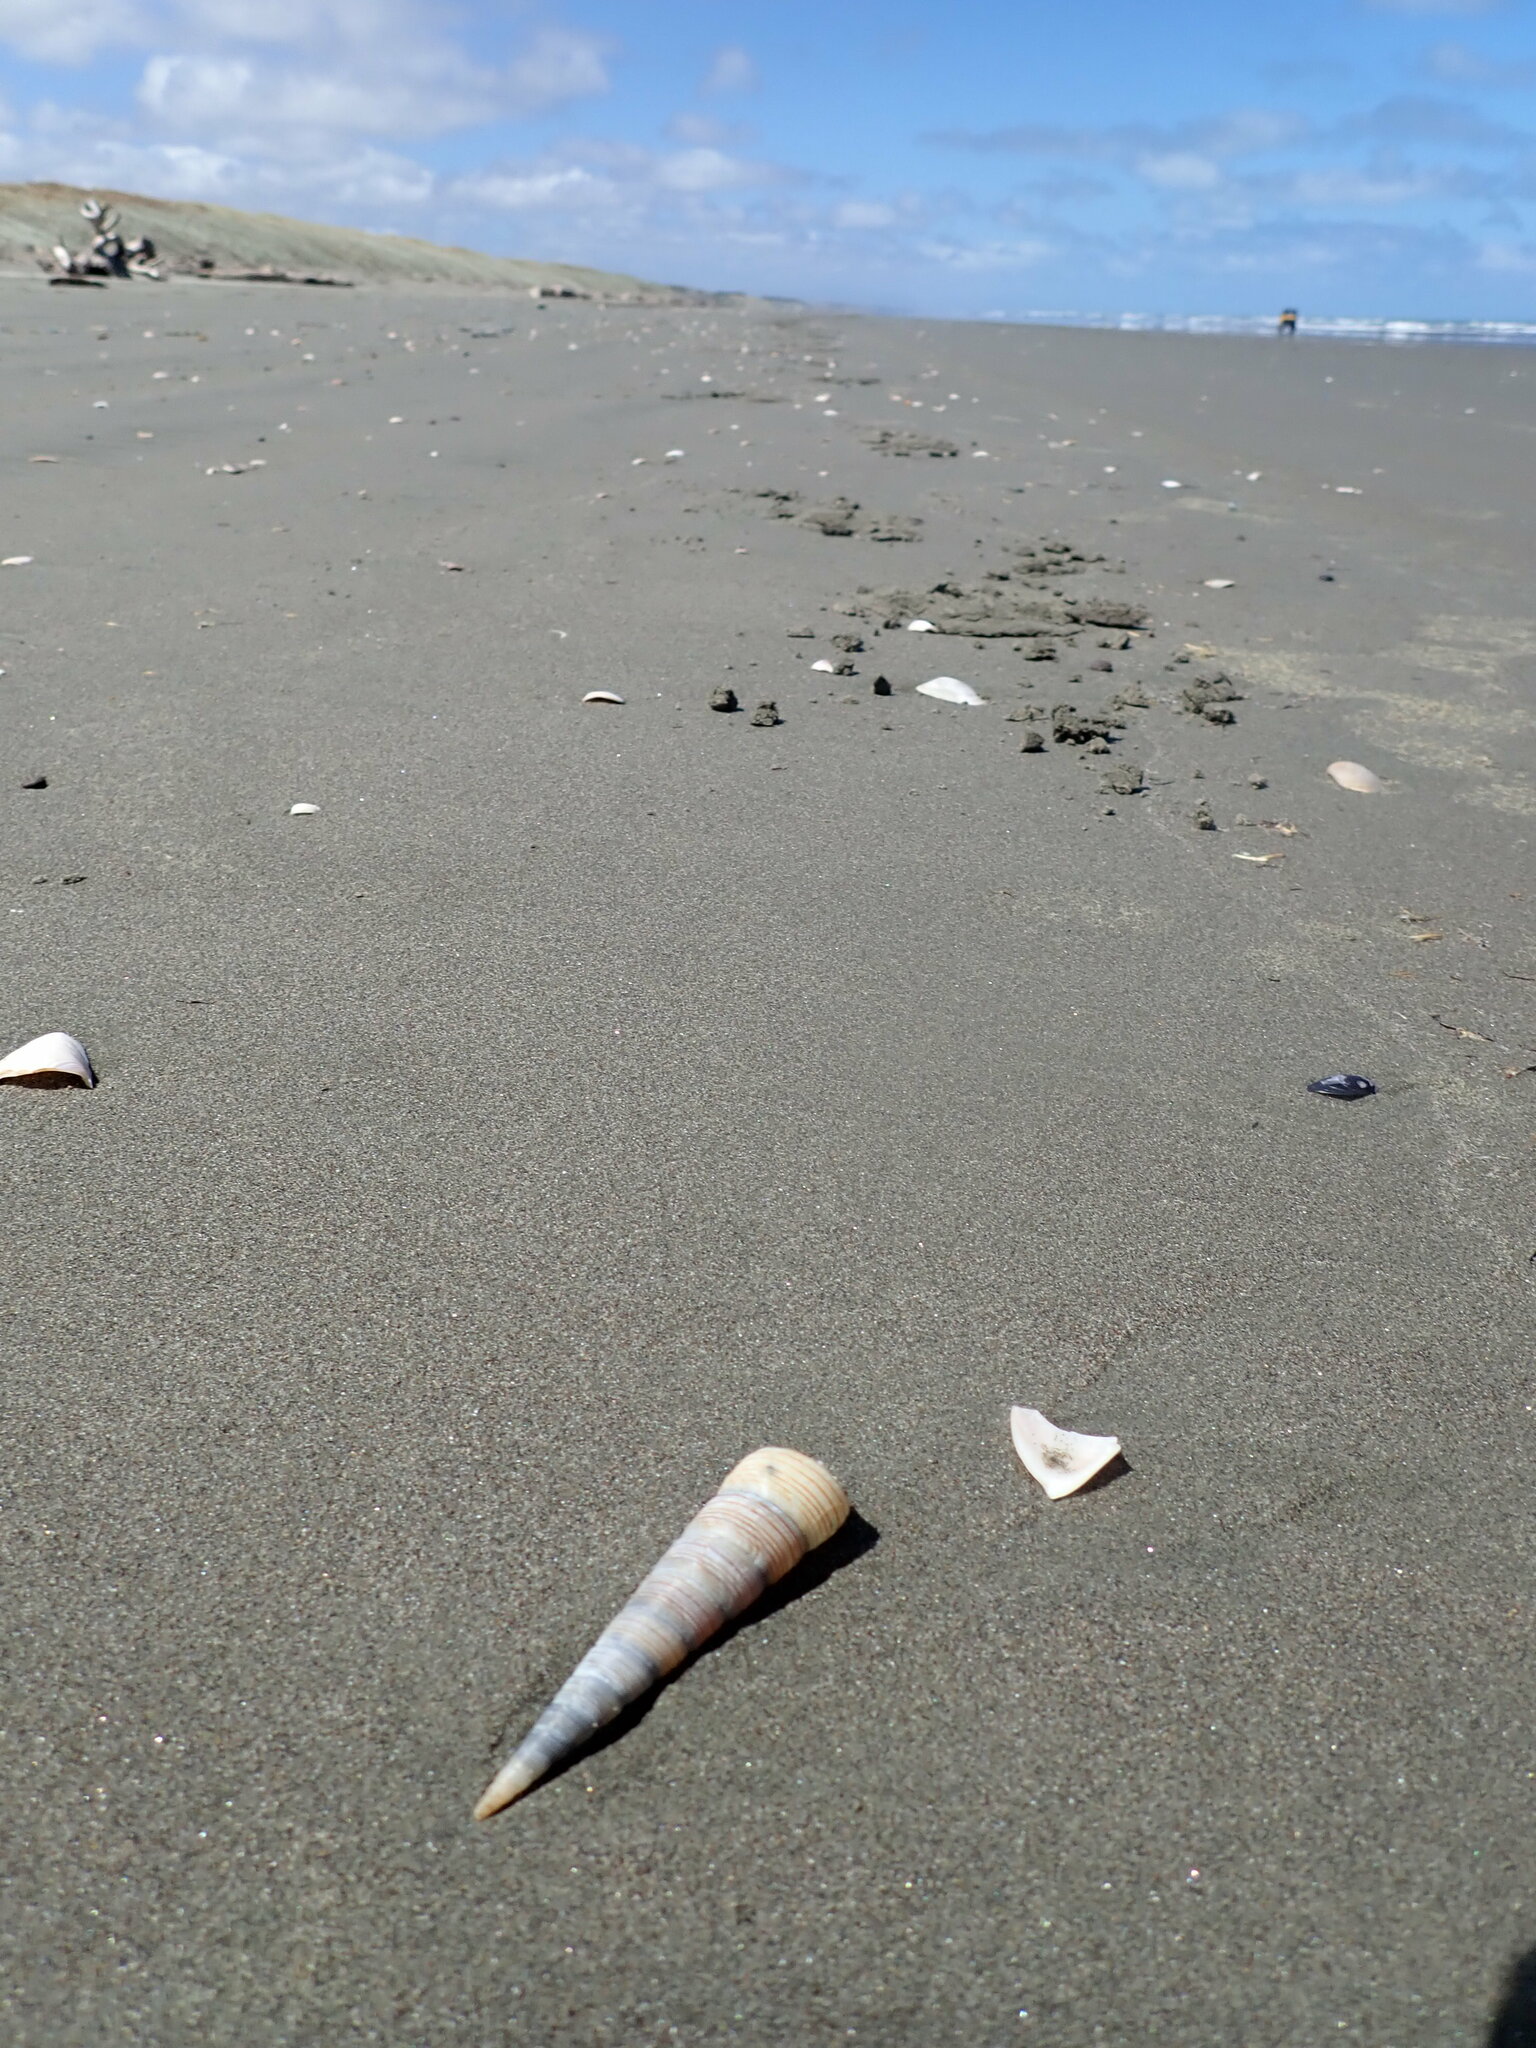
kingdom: Animalia
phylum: Mollusca
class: Gastropoda
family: Turritellidae
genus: Zeacolpus
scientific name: Zeacolpus vittatus
